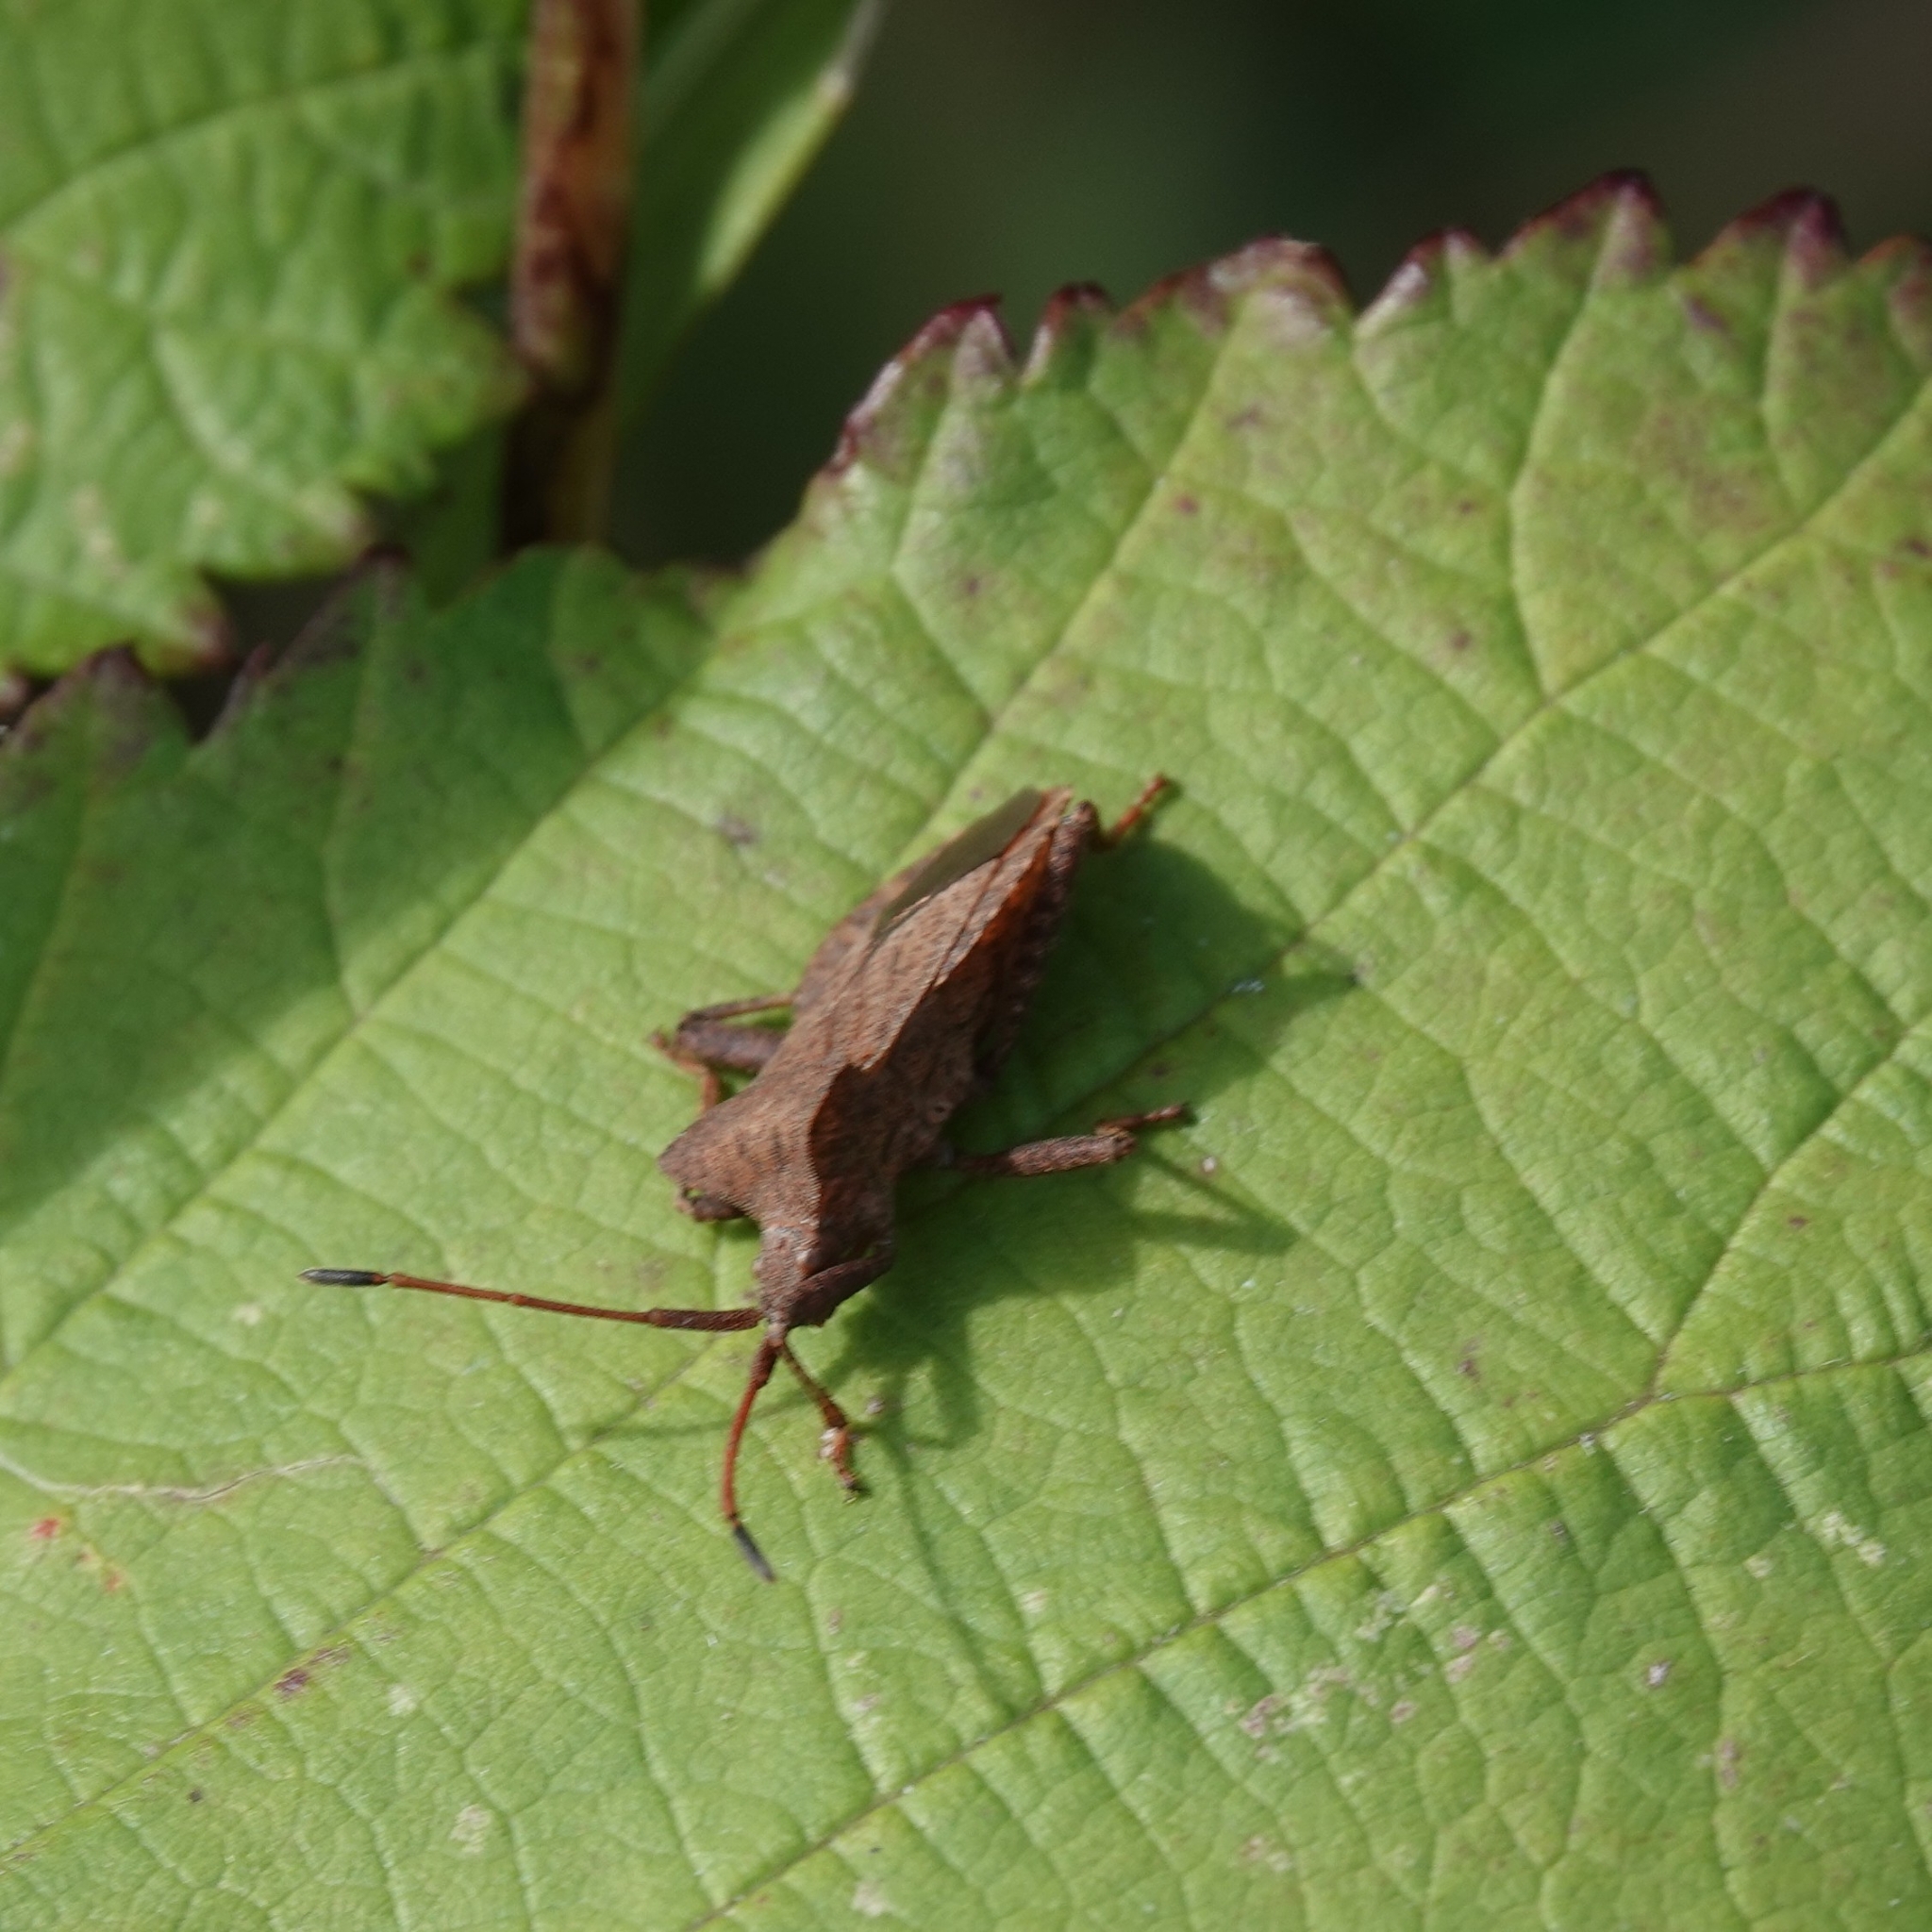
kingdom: Animalia
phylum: Arthropoda
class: Insecta
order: Hemiptera
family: Coreidae
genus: Coreus
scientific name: Coreus marginatus
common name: Dock bug
